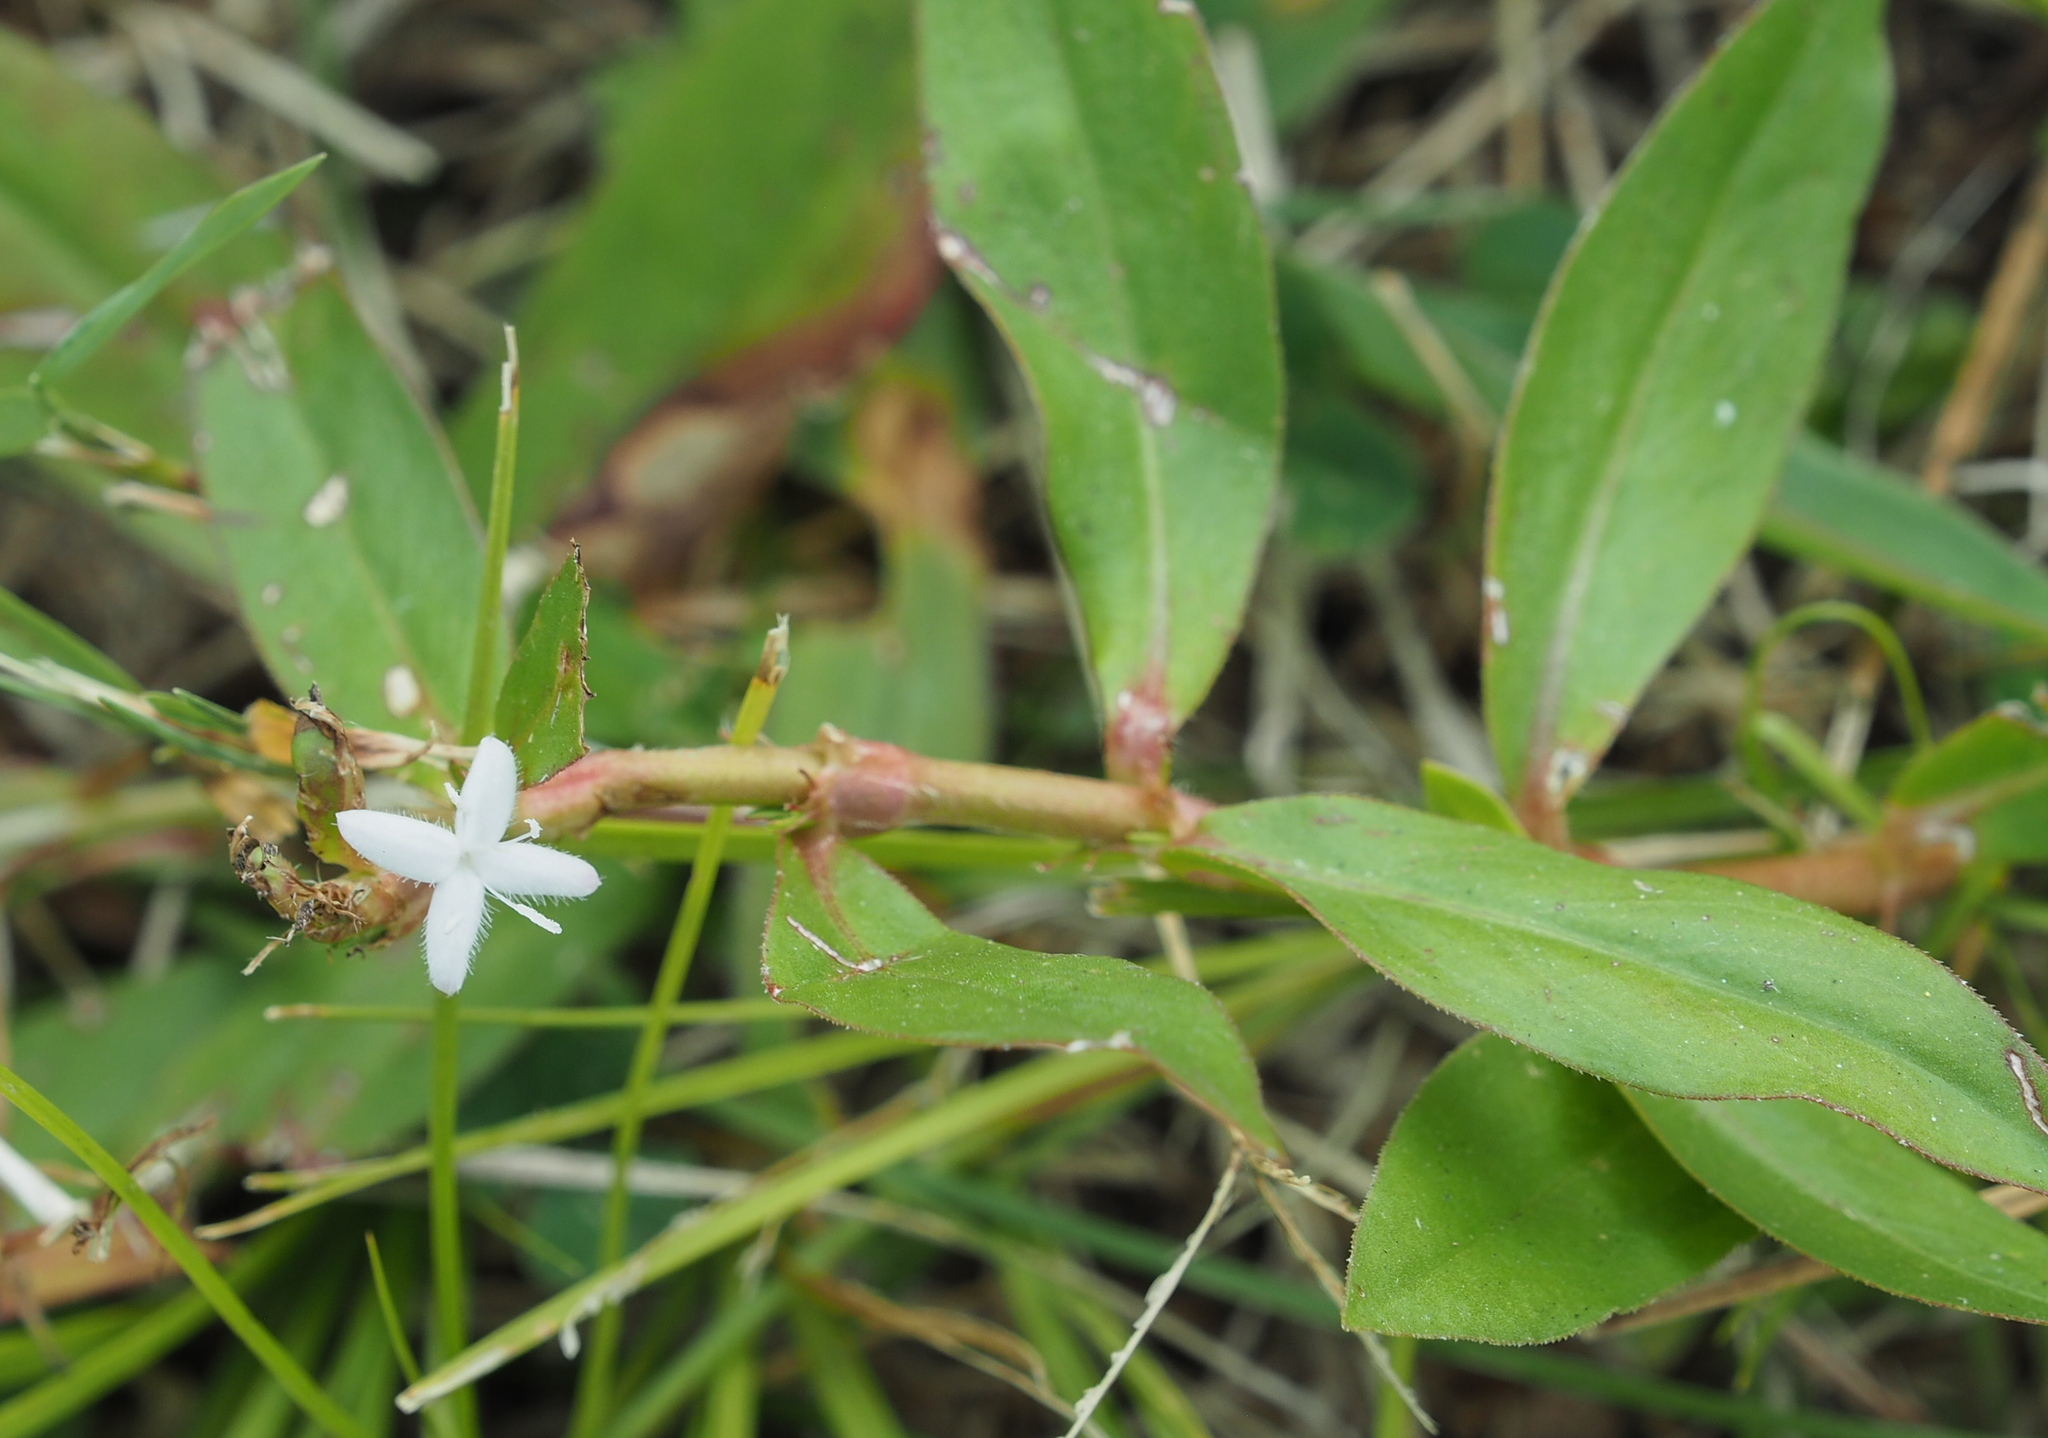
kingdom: Plantae
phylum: Tracheophyta
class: Magnoliopsida
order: Gentianales
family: Rubiaceae
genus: Diodia
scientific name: Diodia virginiana
